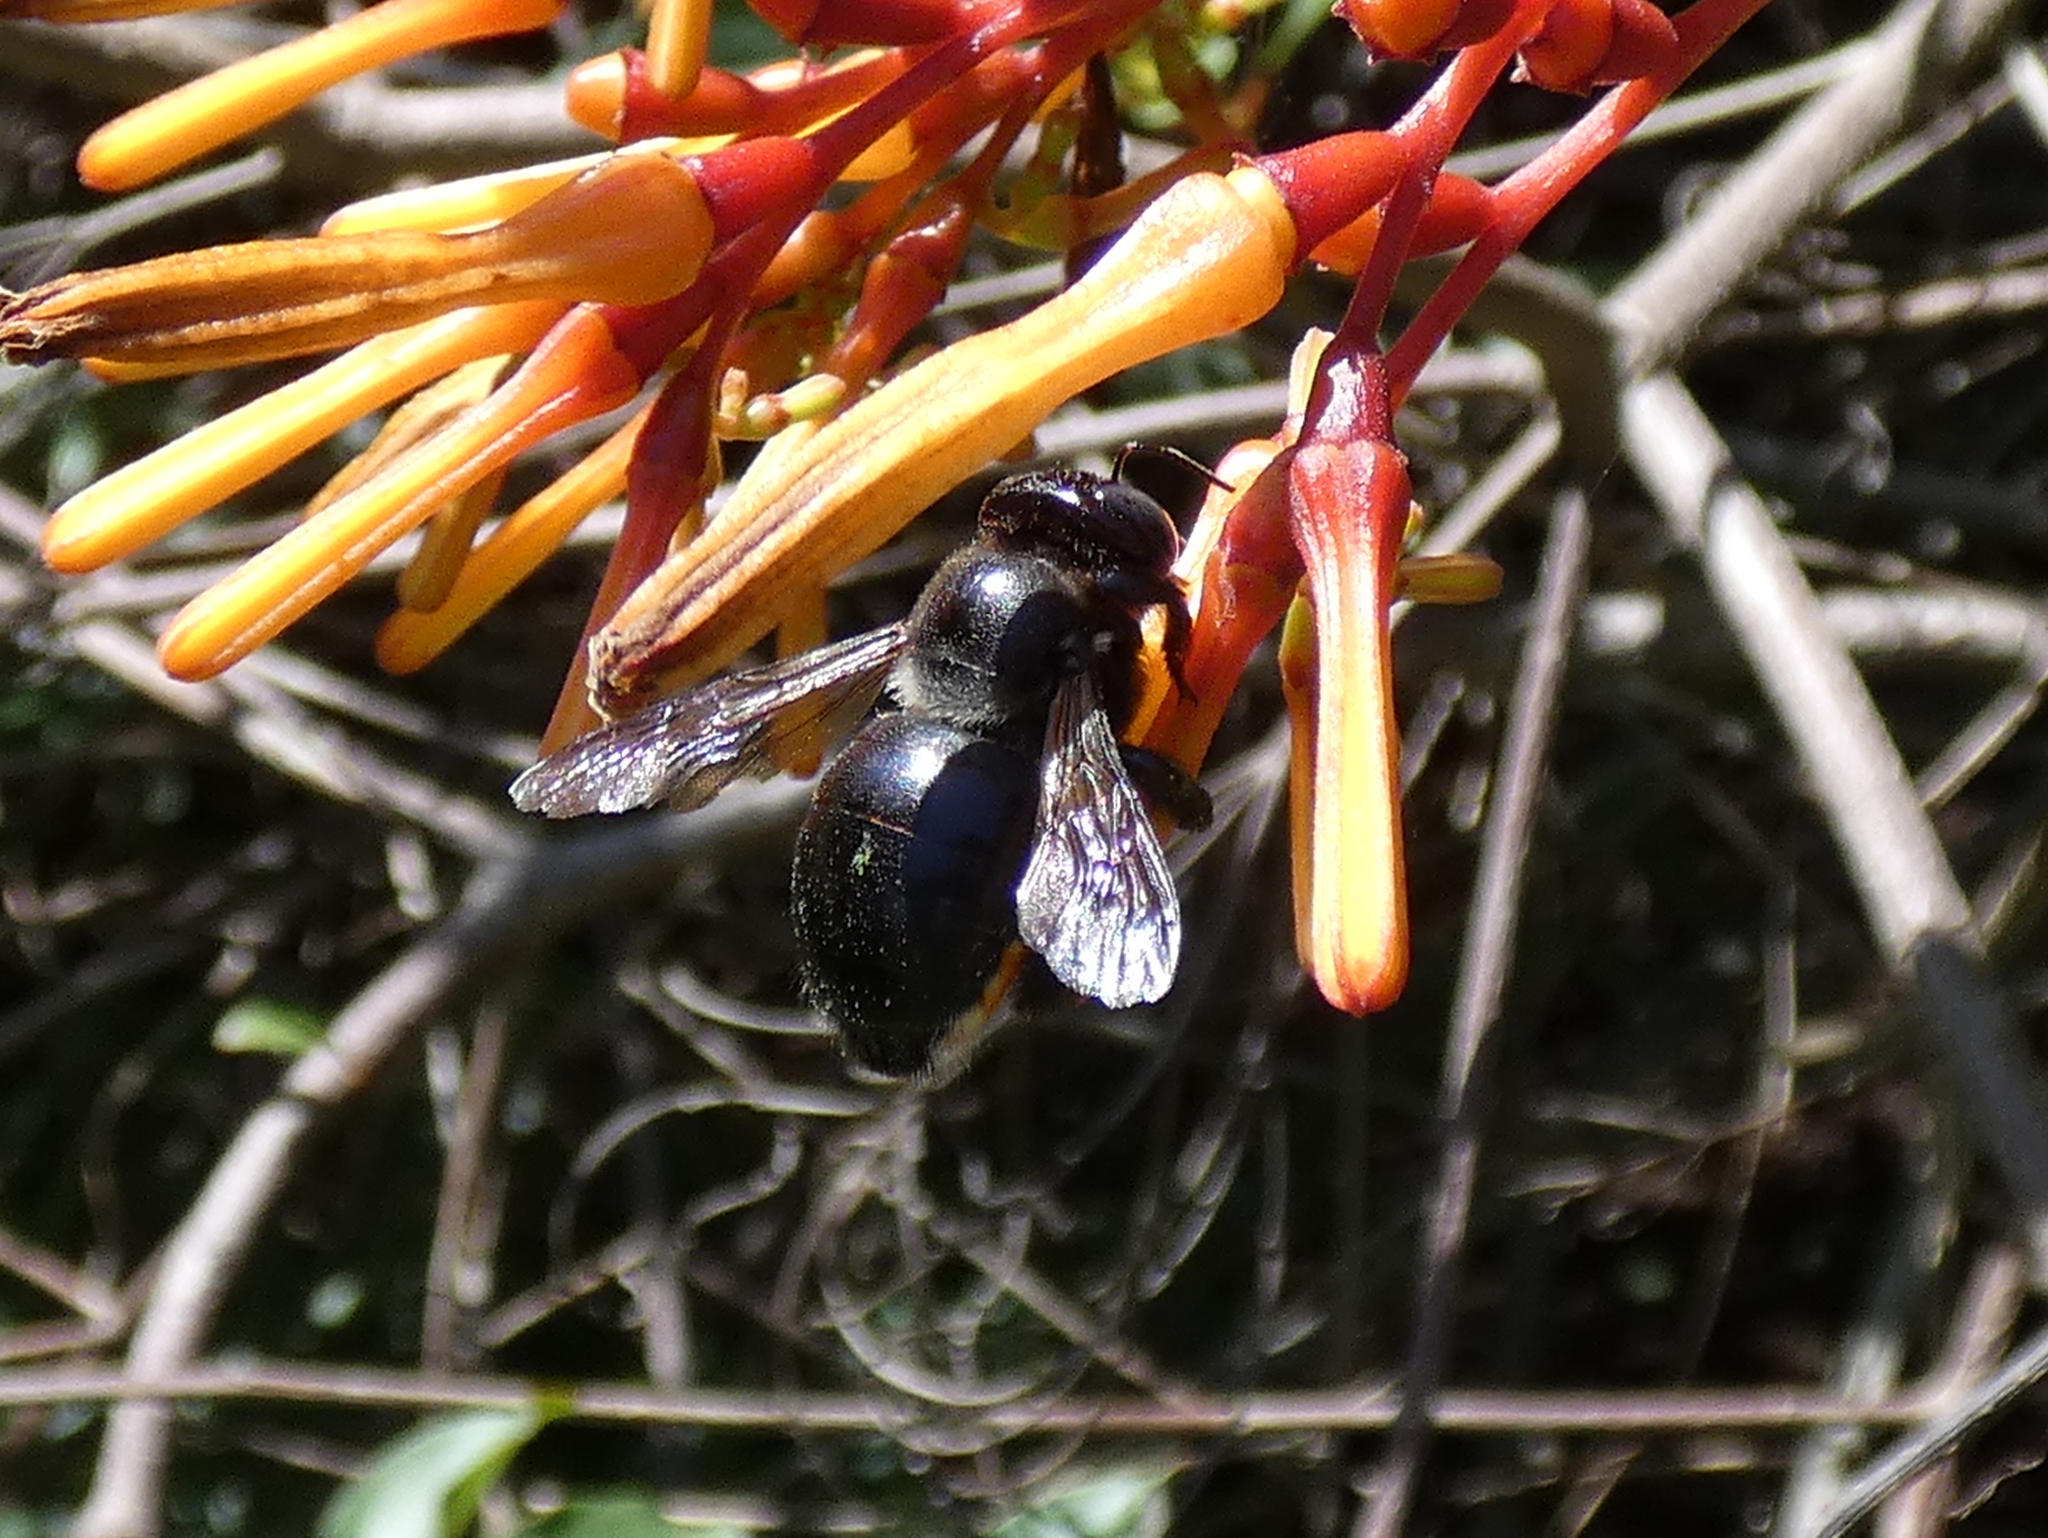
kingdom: Animalia
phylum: Arthropoda
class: Insecta
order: Hymenoptera
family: Apidae
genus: Xylocopa
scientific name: Xylocopa micans
